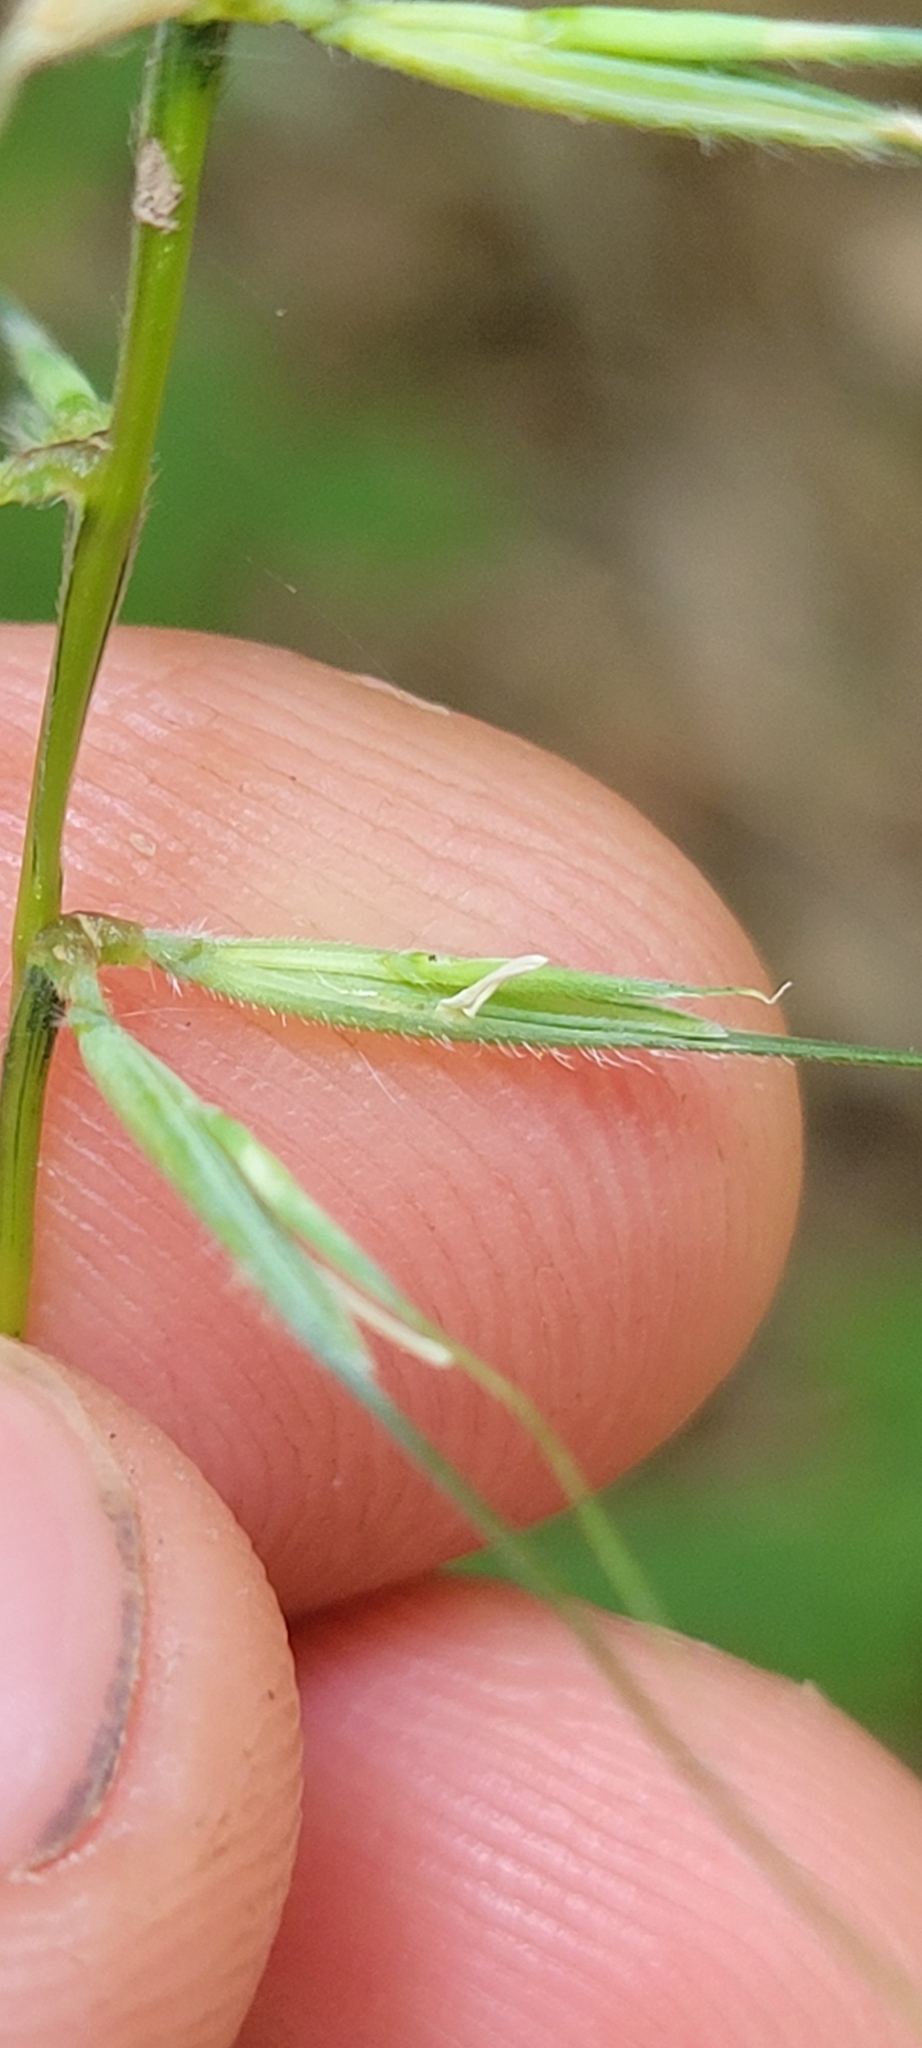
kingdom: Plantae
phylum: Tracheophyta
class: Liliopsida
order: Poales
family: Poaceae
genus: Elymus
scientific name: Elymus hystrix
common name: Bottlebrush grass
